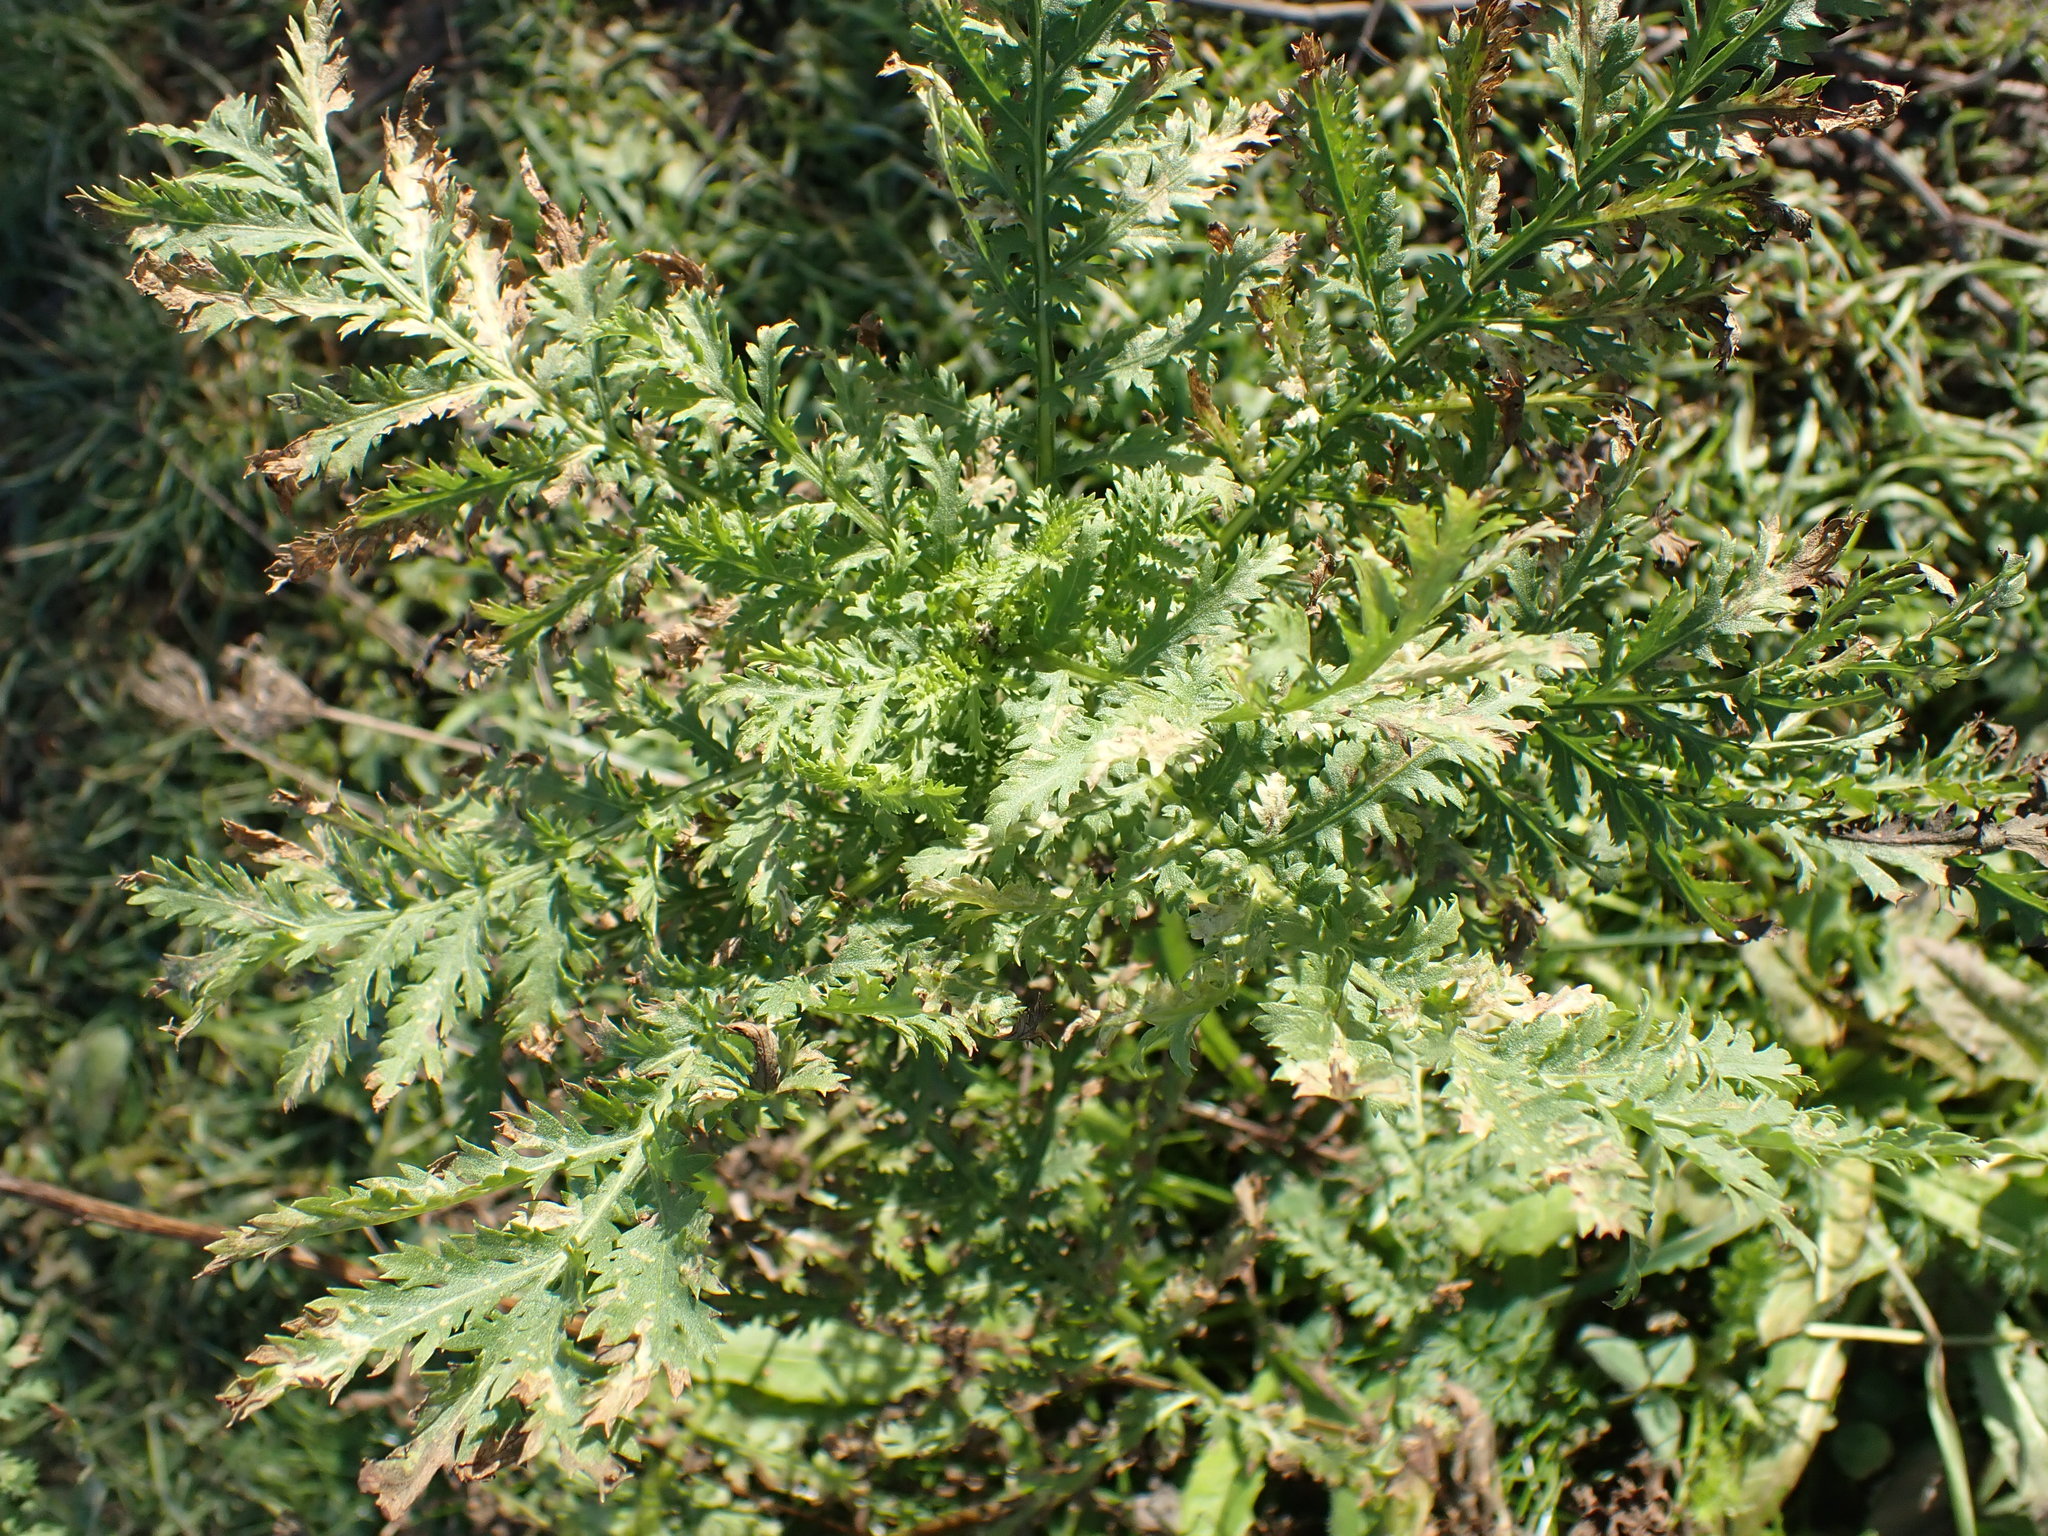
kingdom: Plantae
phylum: Tracheophyta
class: Magnoliopsida
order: Asterales
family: Asteraceae
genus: Tanacetum
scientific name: Tanacetum vulgare
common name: Common tansy
